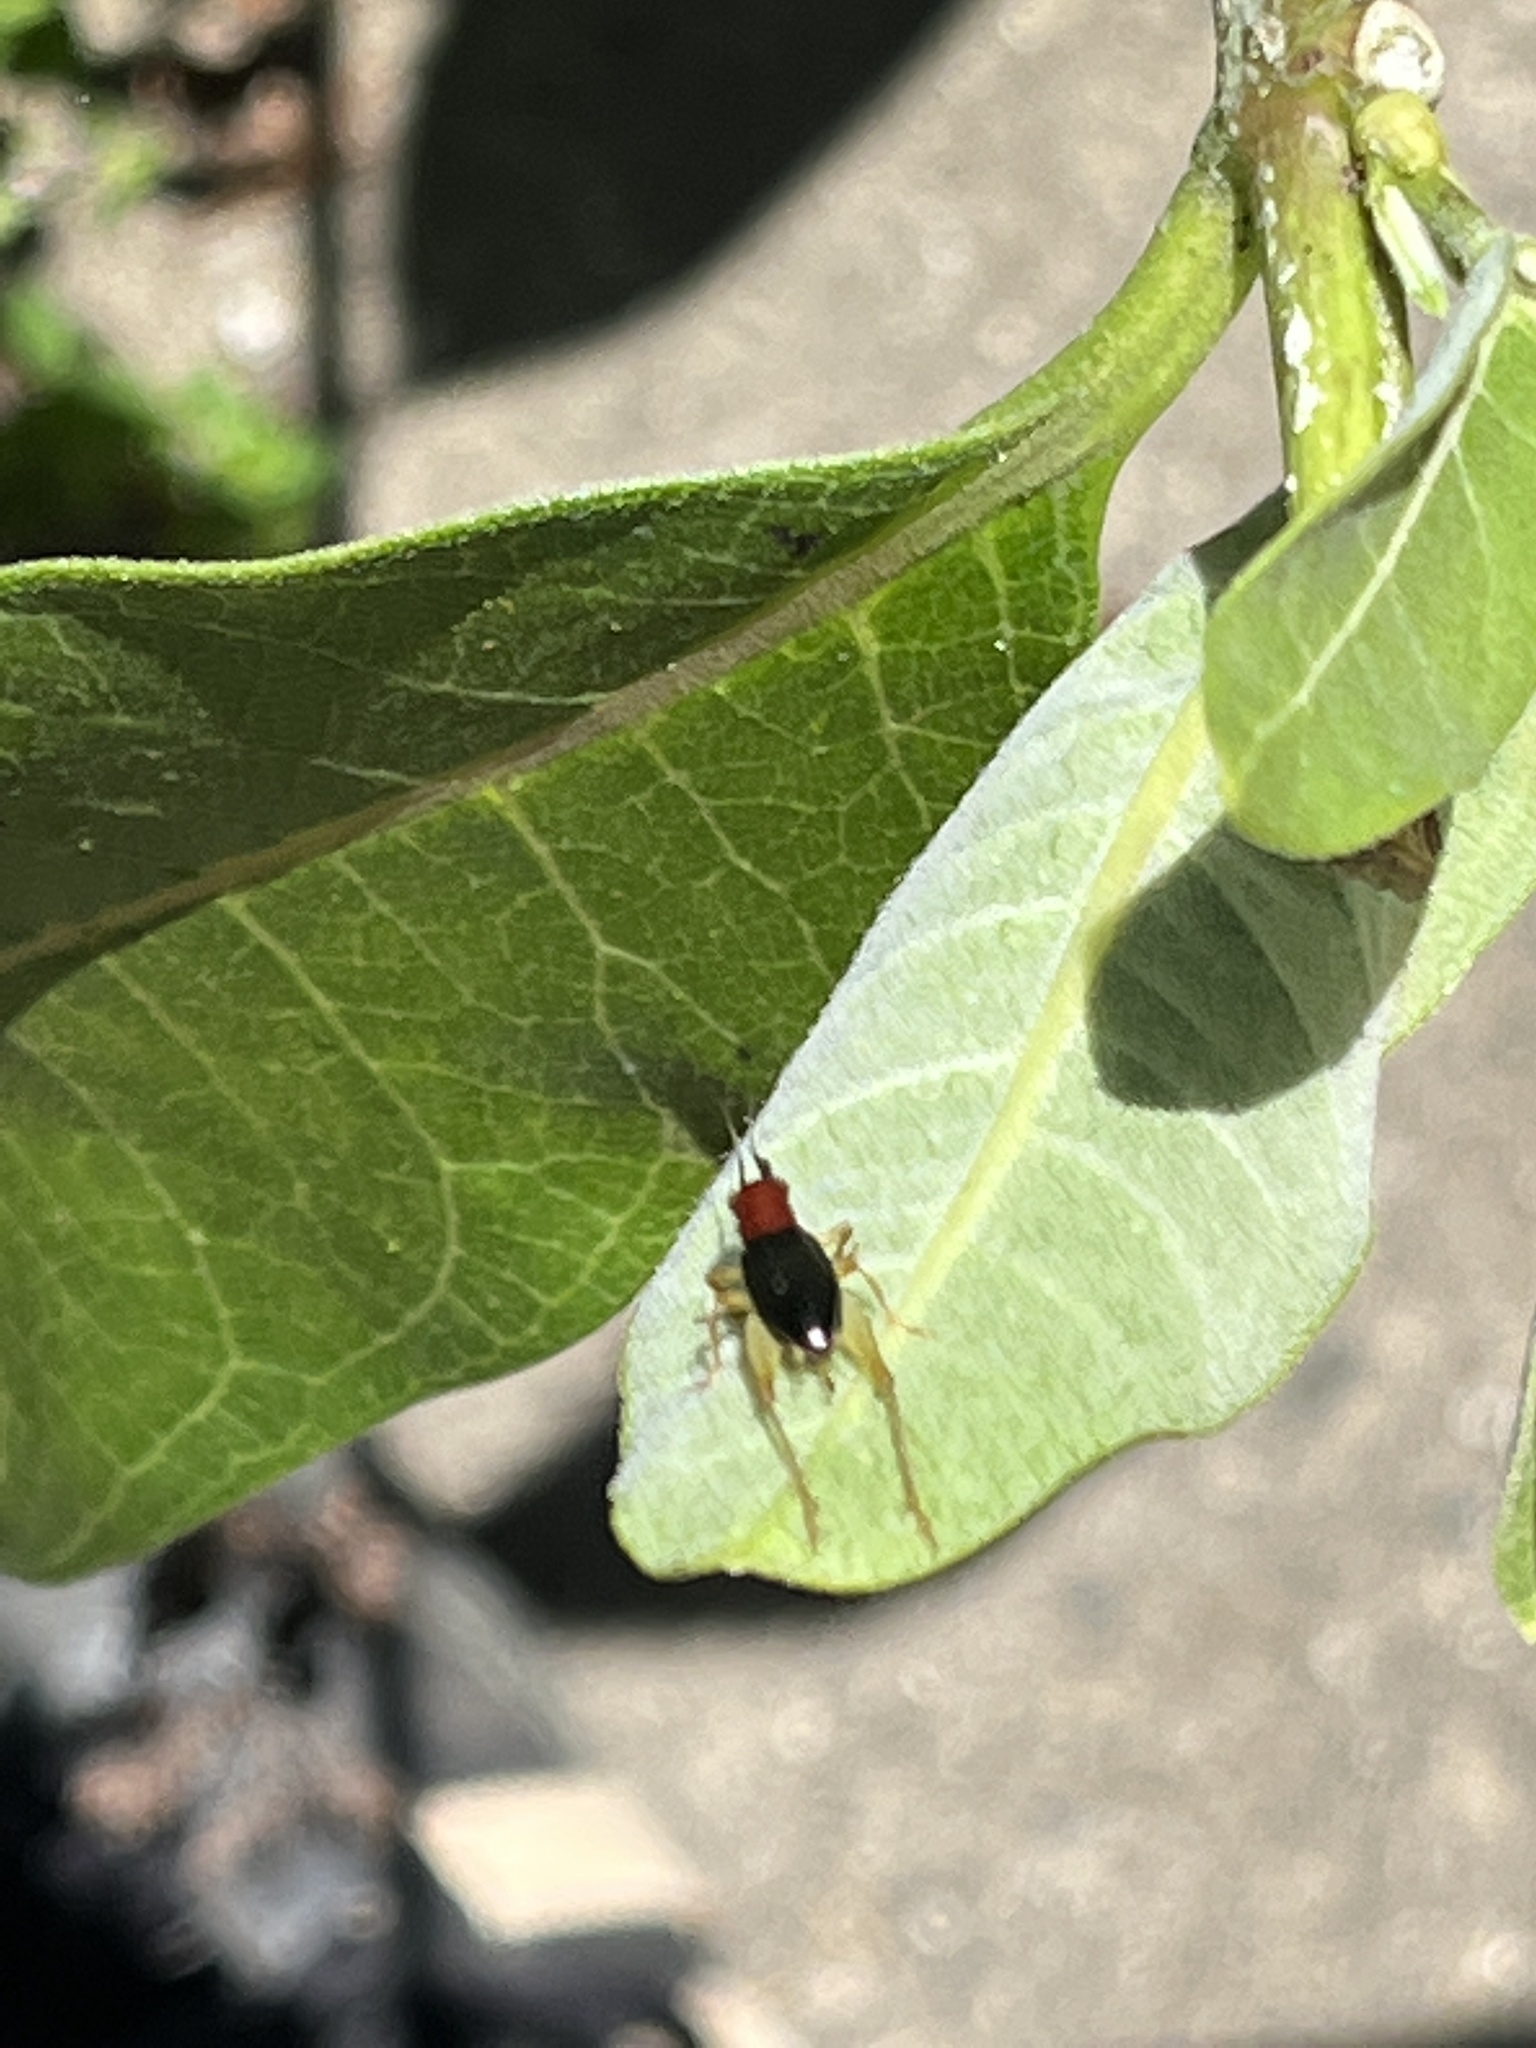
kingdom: Animalia
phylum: Arthropoda
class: Insecta
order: Orthoptera
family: Trigonidiidae
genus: Phyllopalpus
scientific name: Phyllopalpus pulchellus
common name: Handsome trig
